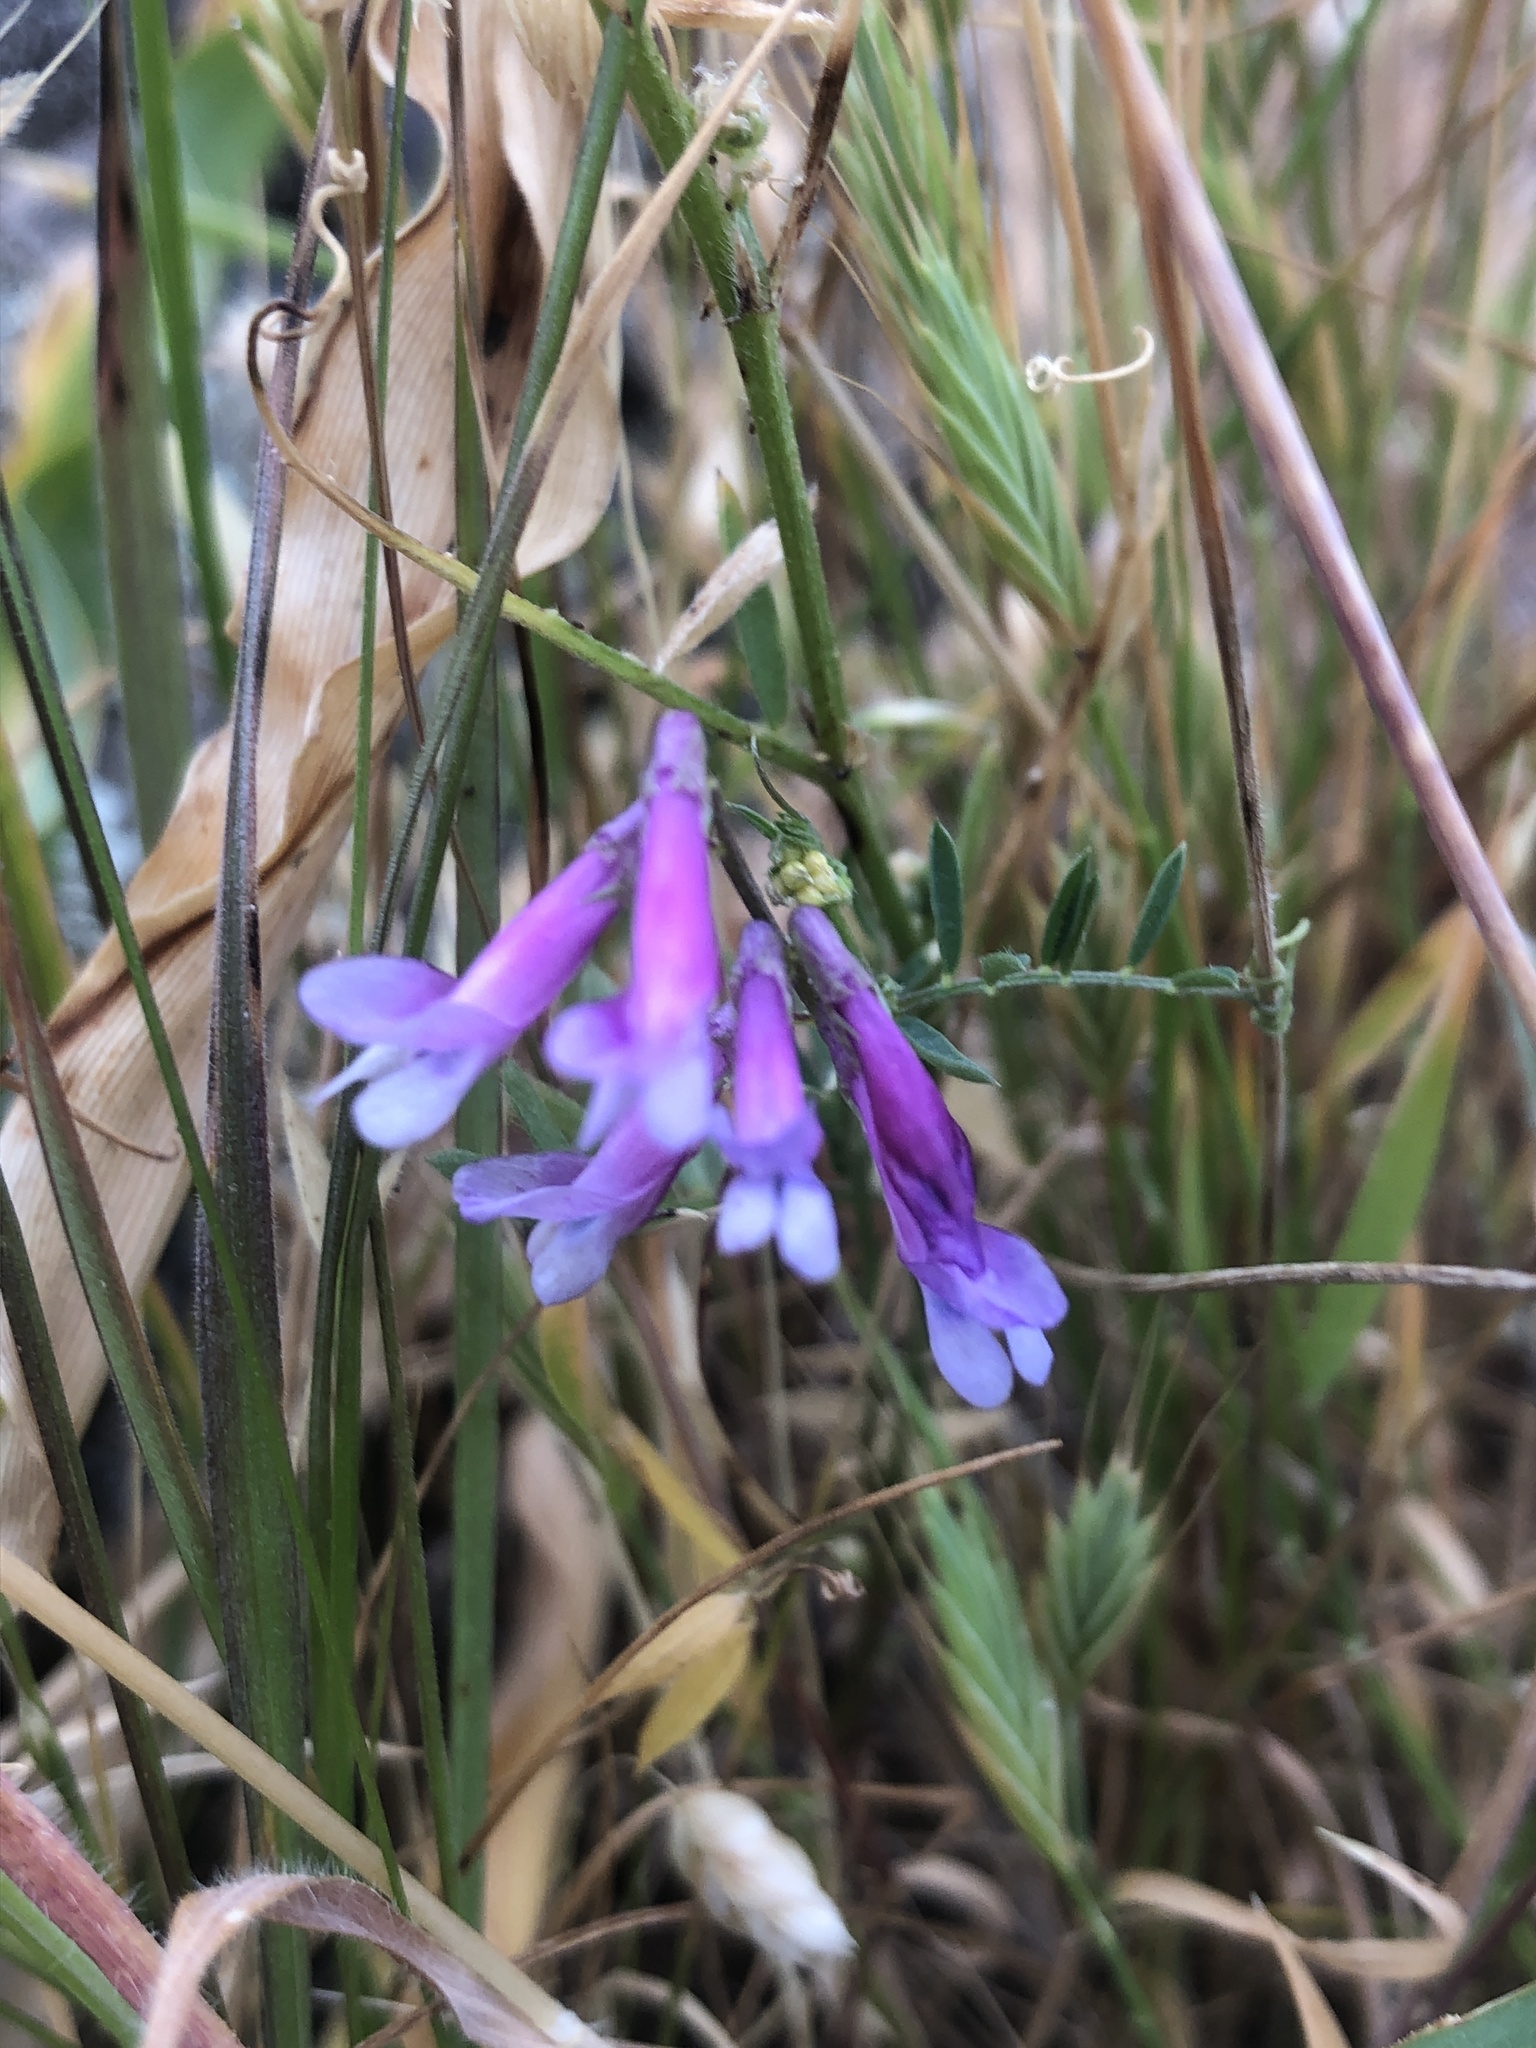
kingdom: Plantae
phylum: Tracheophyta
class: Magnoliopsida
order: Fabales
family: Fabaceae
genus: Vicia
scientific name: Vicia villosa
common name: Fodder vetch
